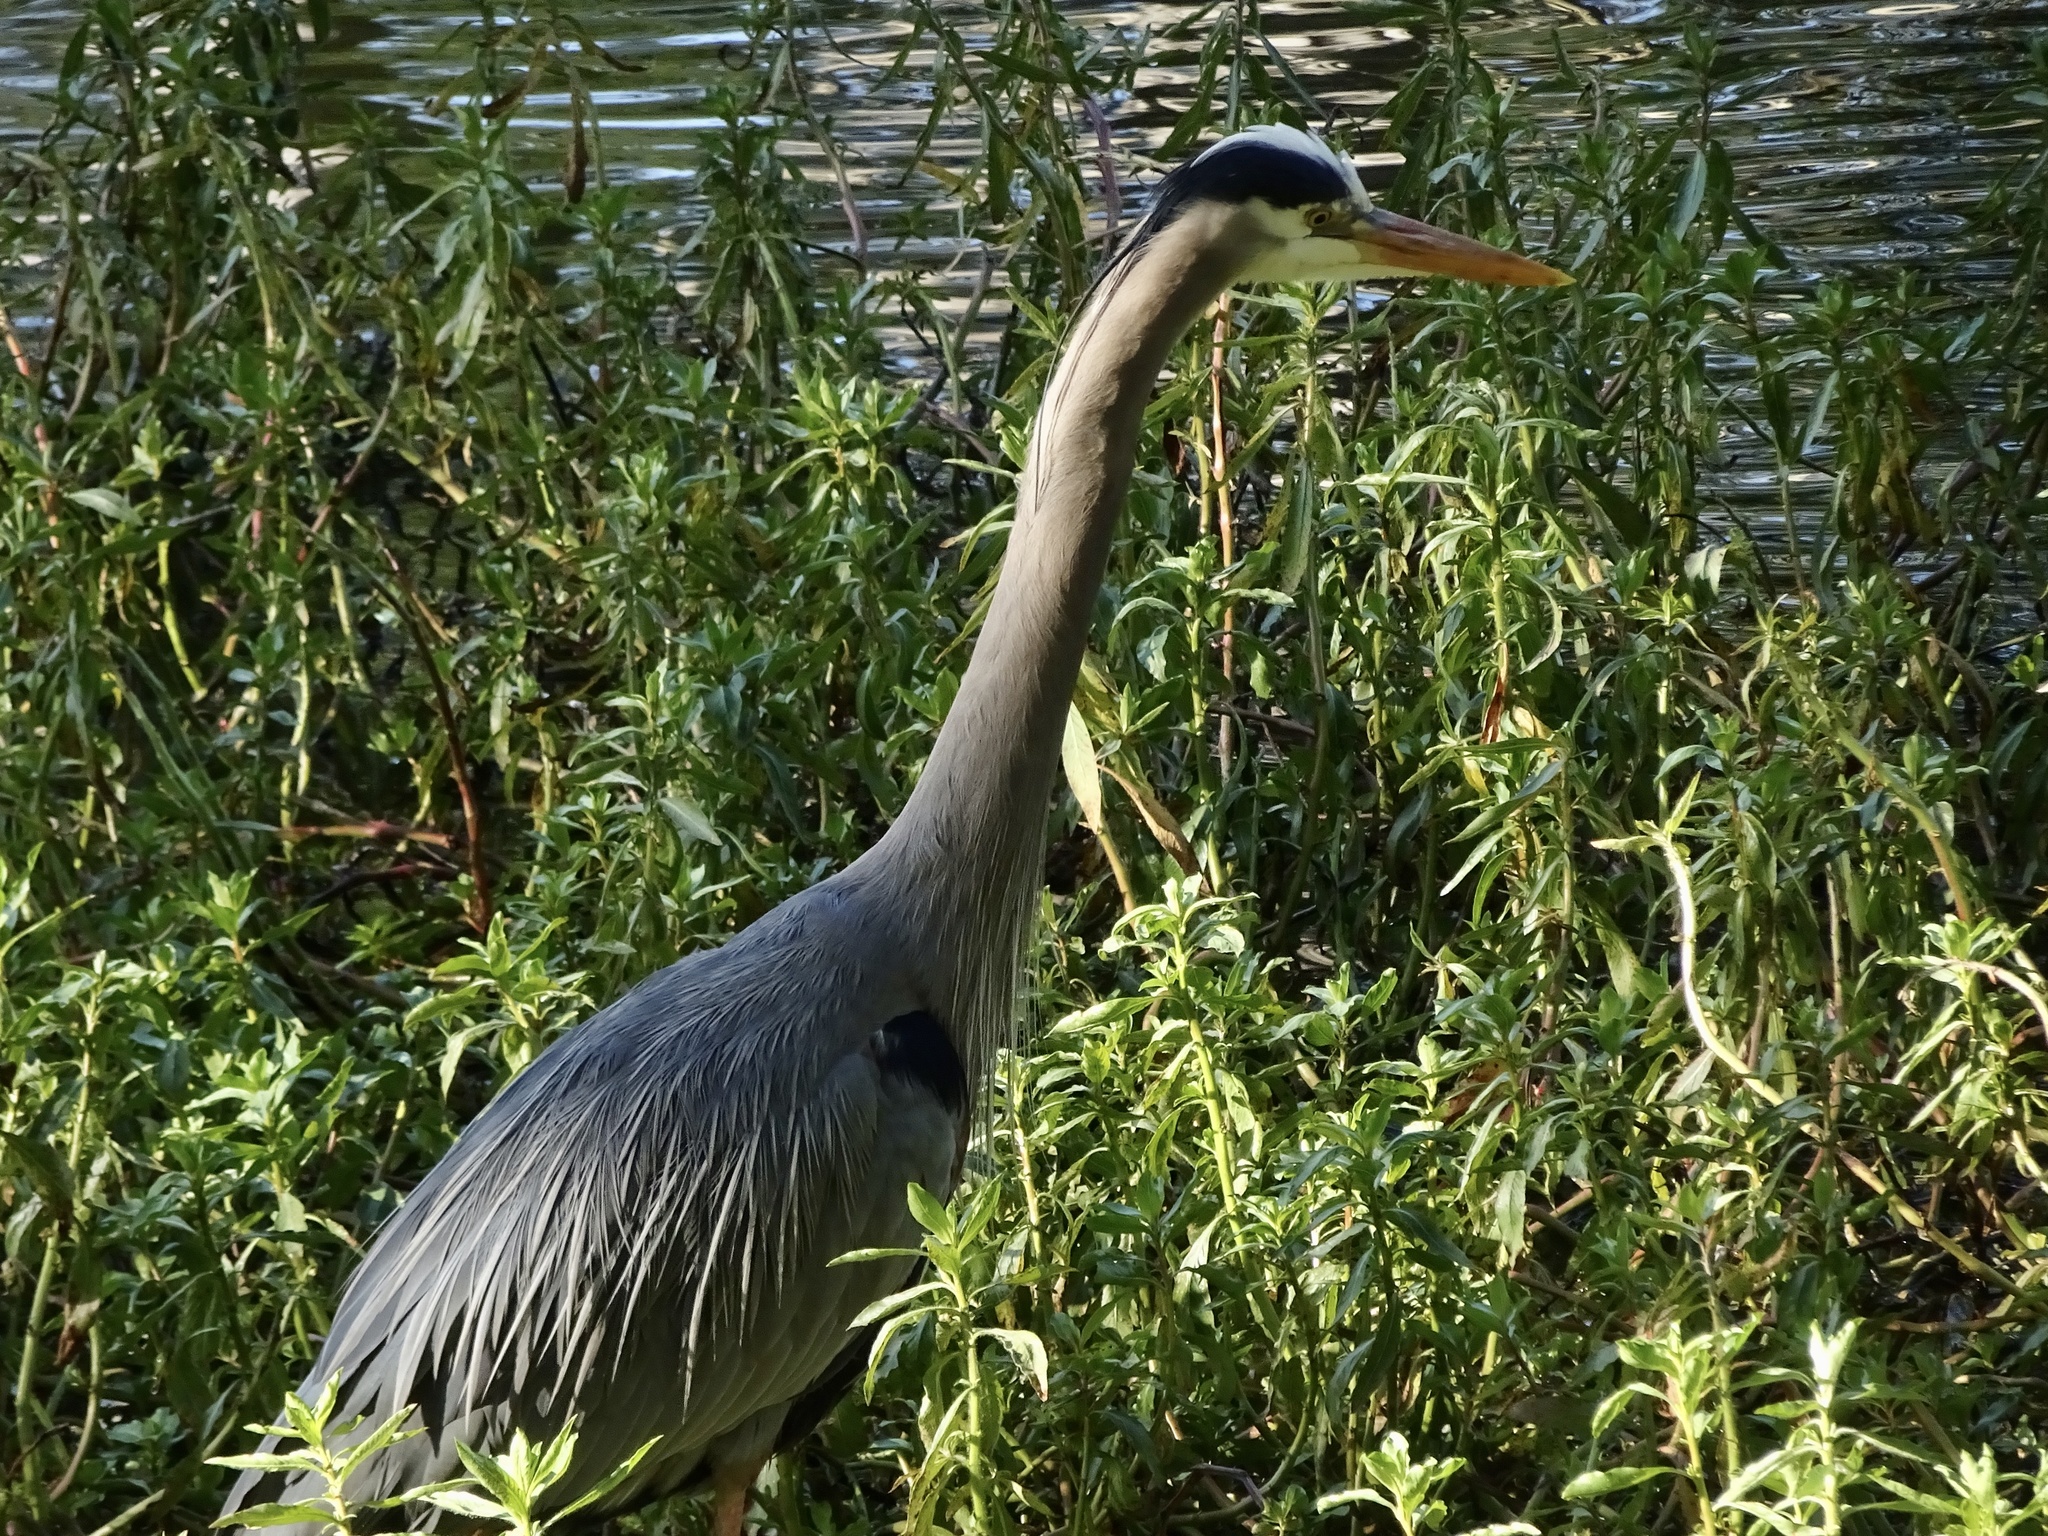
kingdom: Animalia
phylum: Chordata
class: Aves
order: Pelecaniformes
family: Ardeidae
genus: Ardea
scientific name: Ardea herodias
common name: Great blue heron
